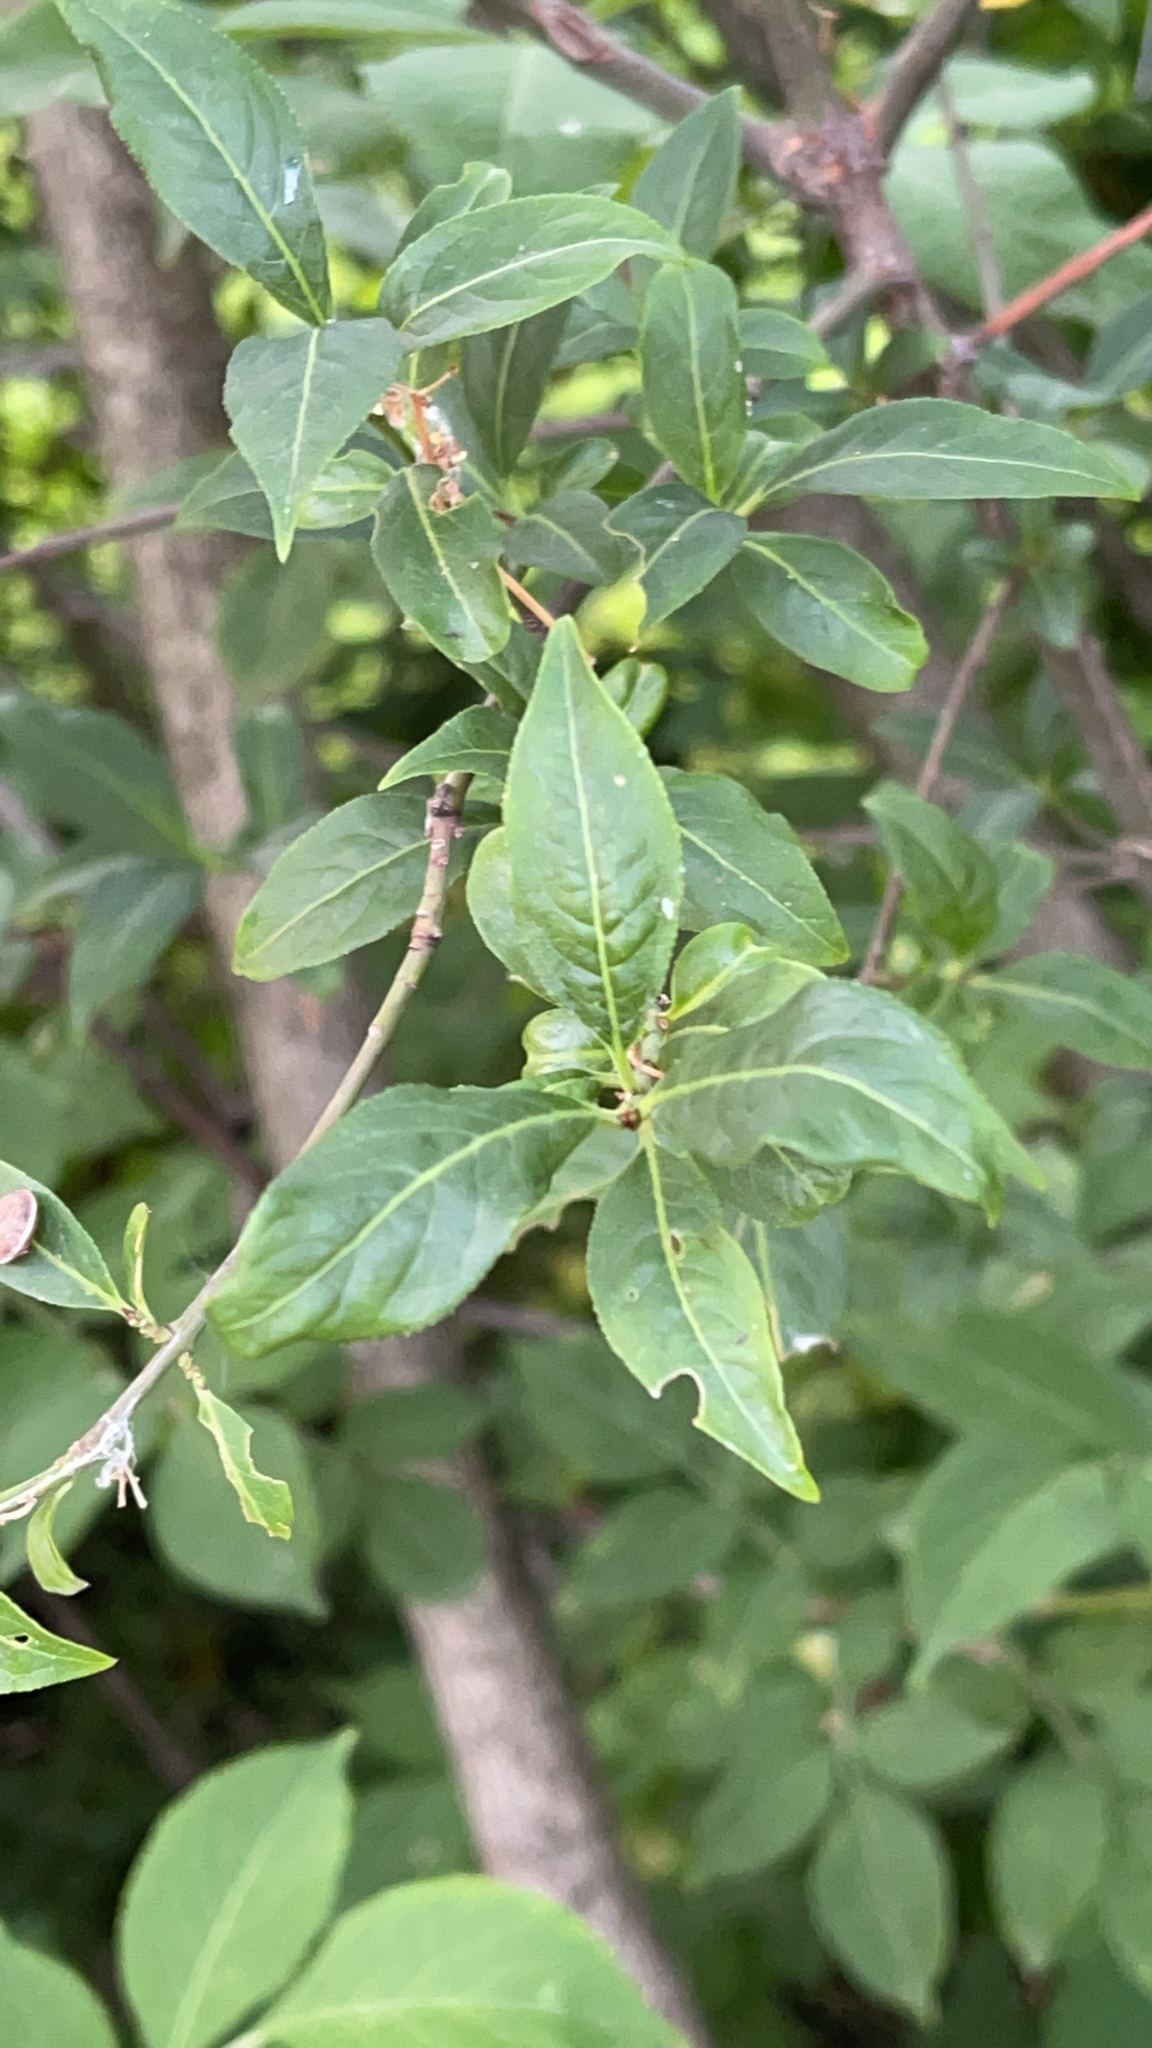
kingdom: Plantae
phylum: Tracheophyta
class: Magnoliopsida
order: Celastrales
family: Celastraceae
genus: Euonymus
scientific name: Euonymus europaeus
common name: Spindle
